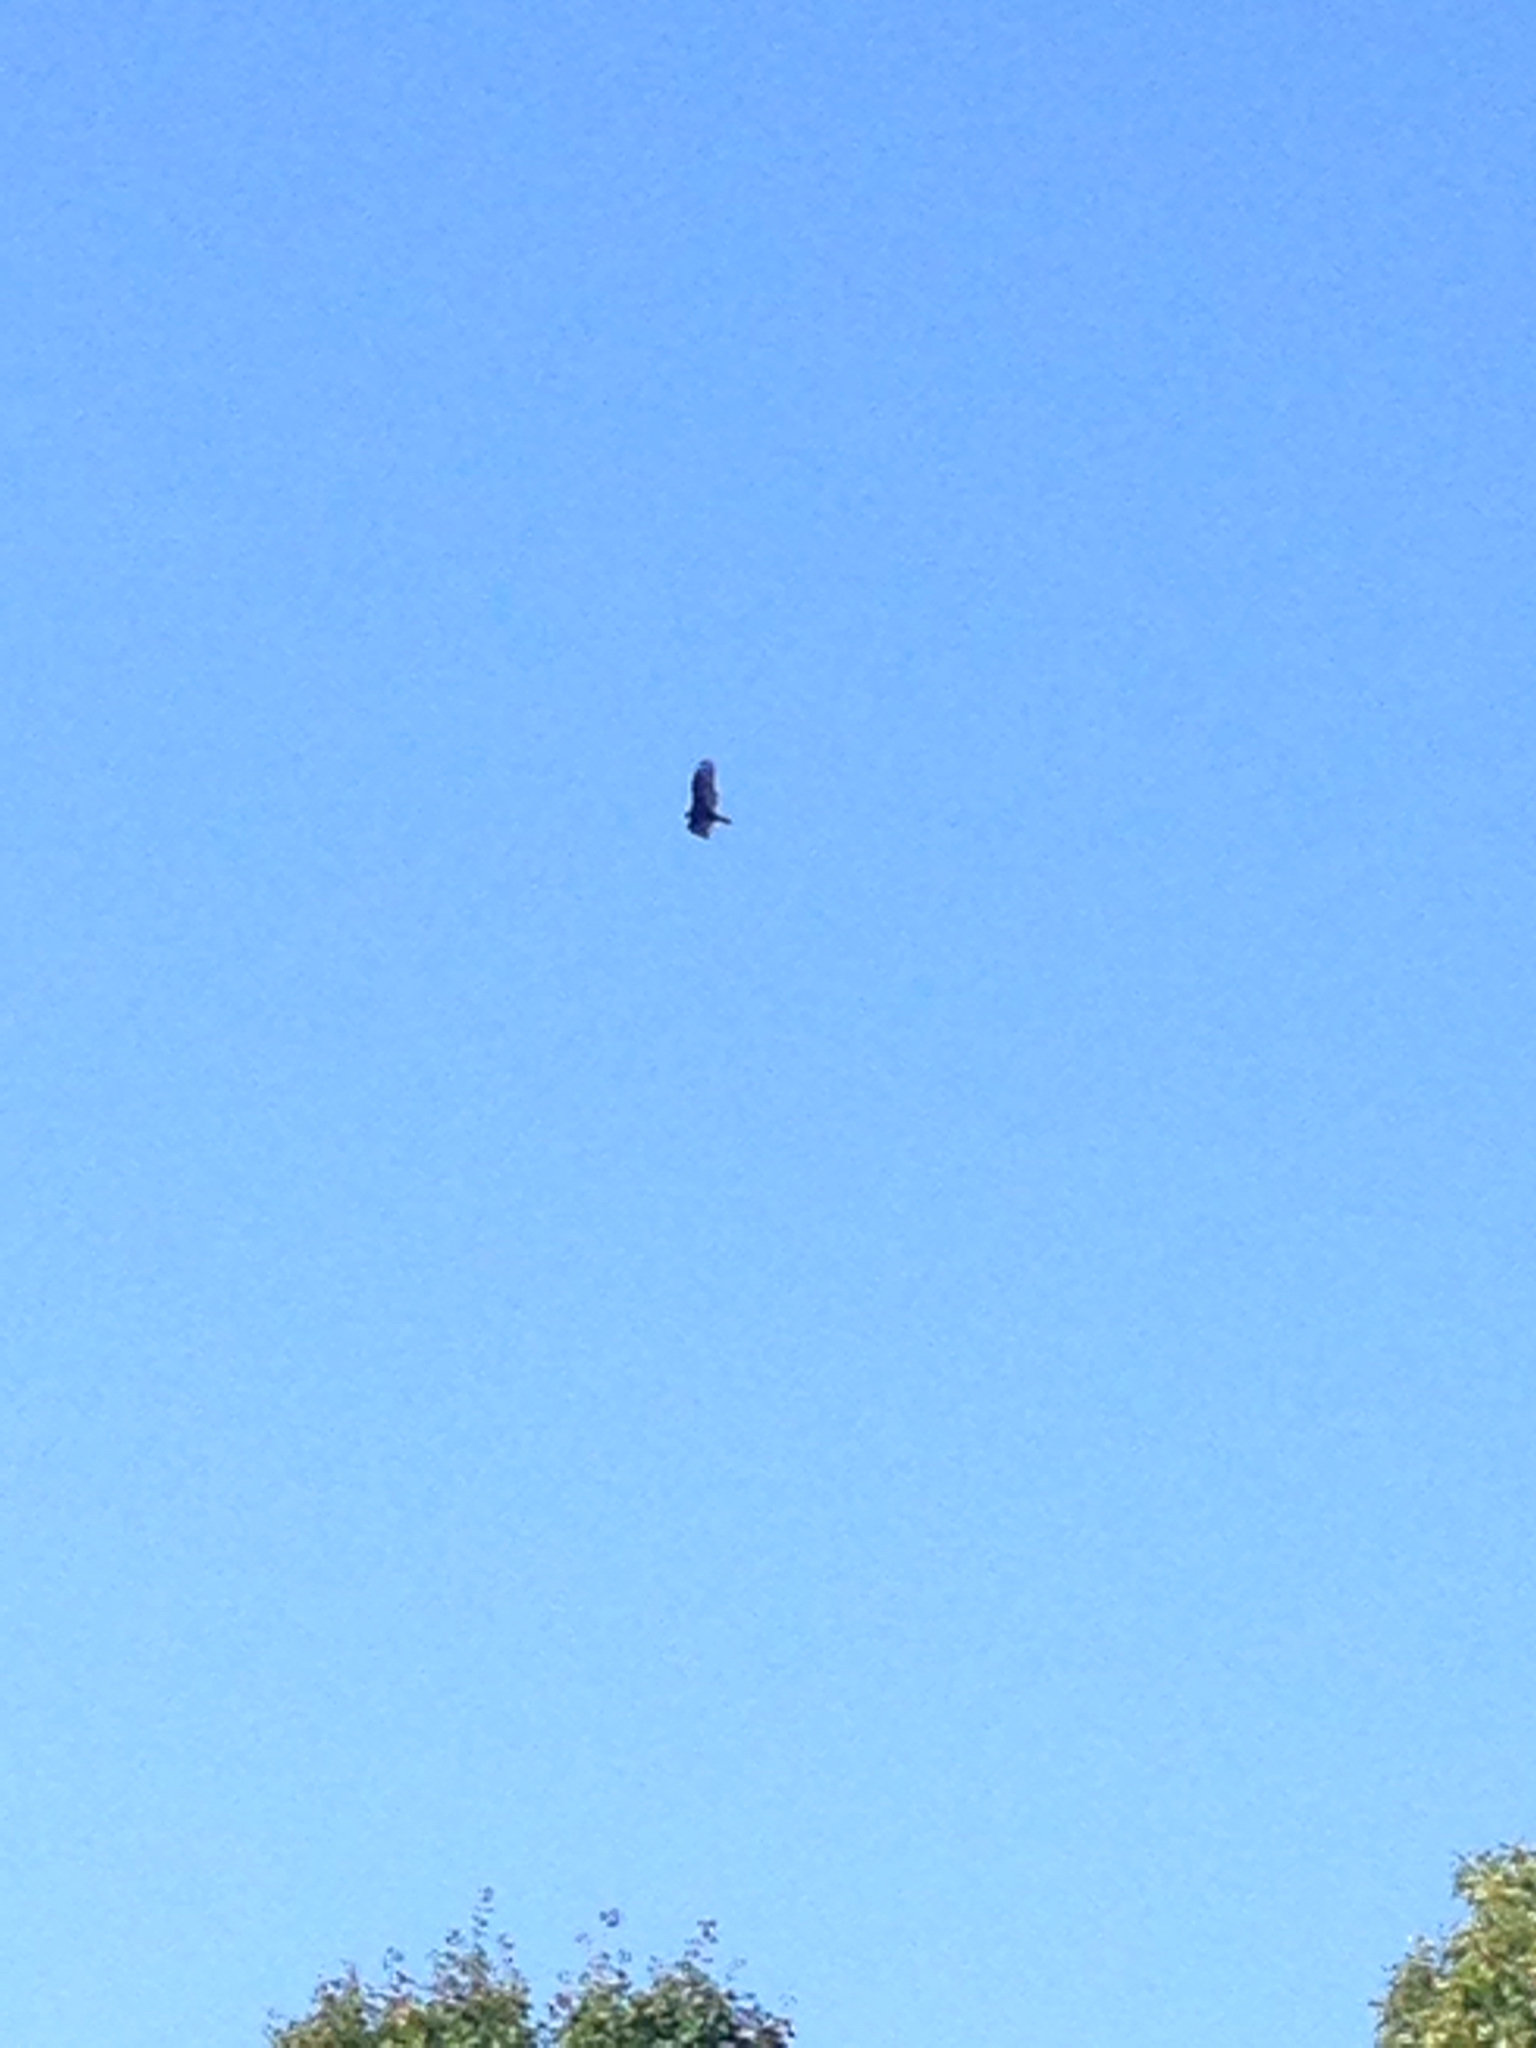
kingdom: Animalia
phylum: Chordata
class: Aves
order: Accipitriformes
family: Cathartidae
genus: Cathartes
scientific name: Cathartes aura
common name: Turkey vulture
